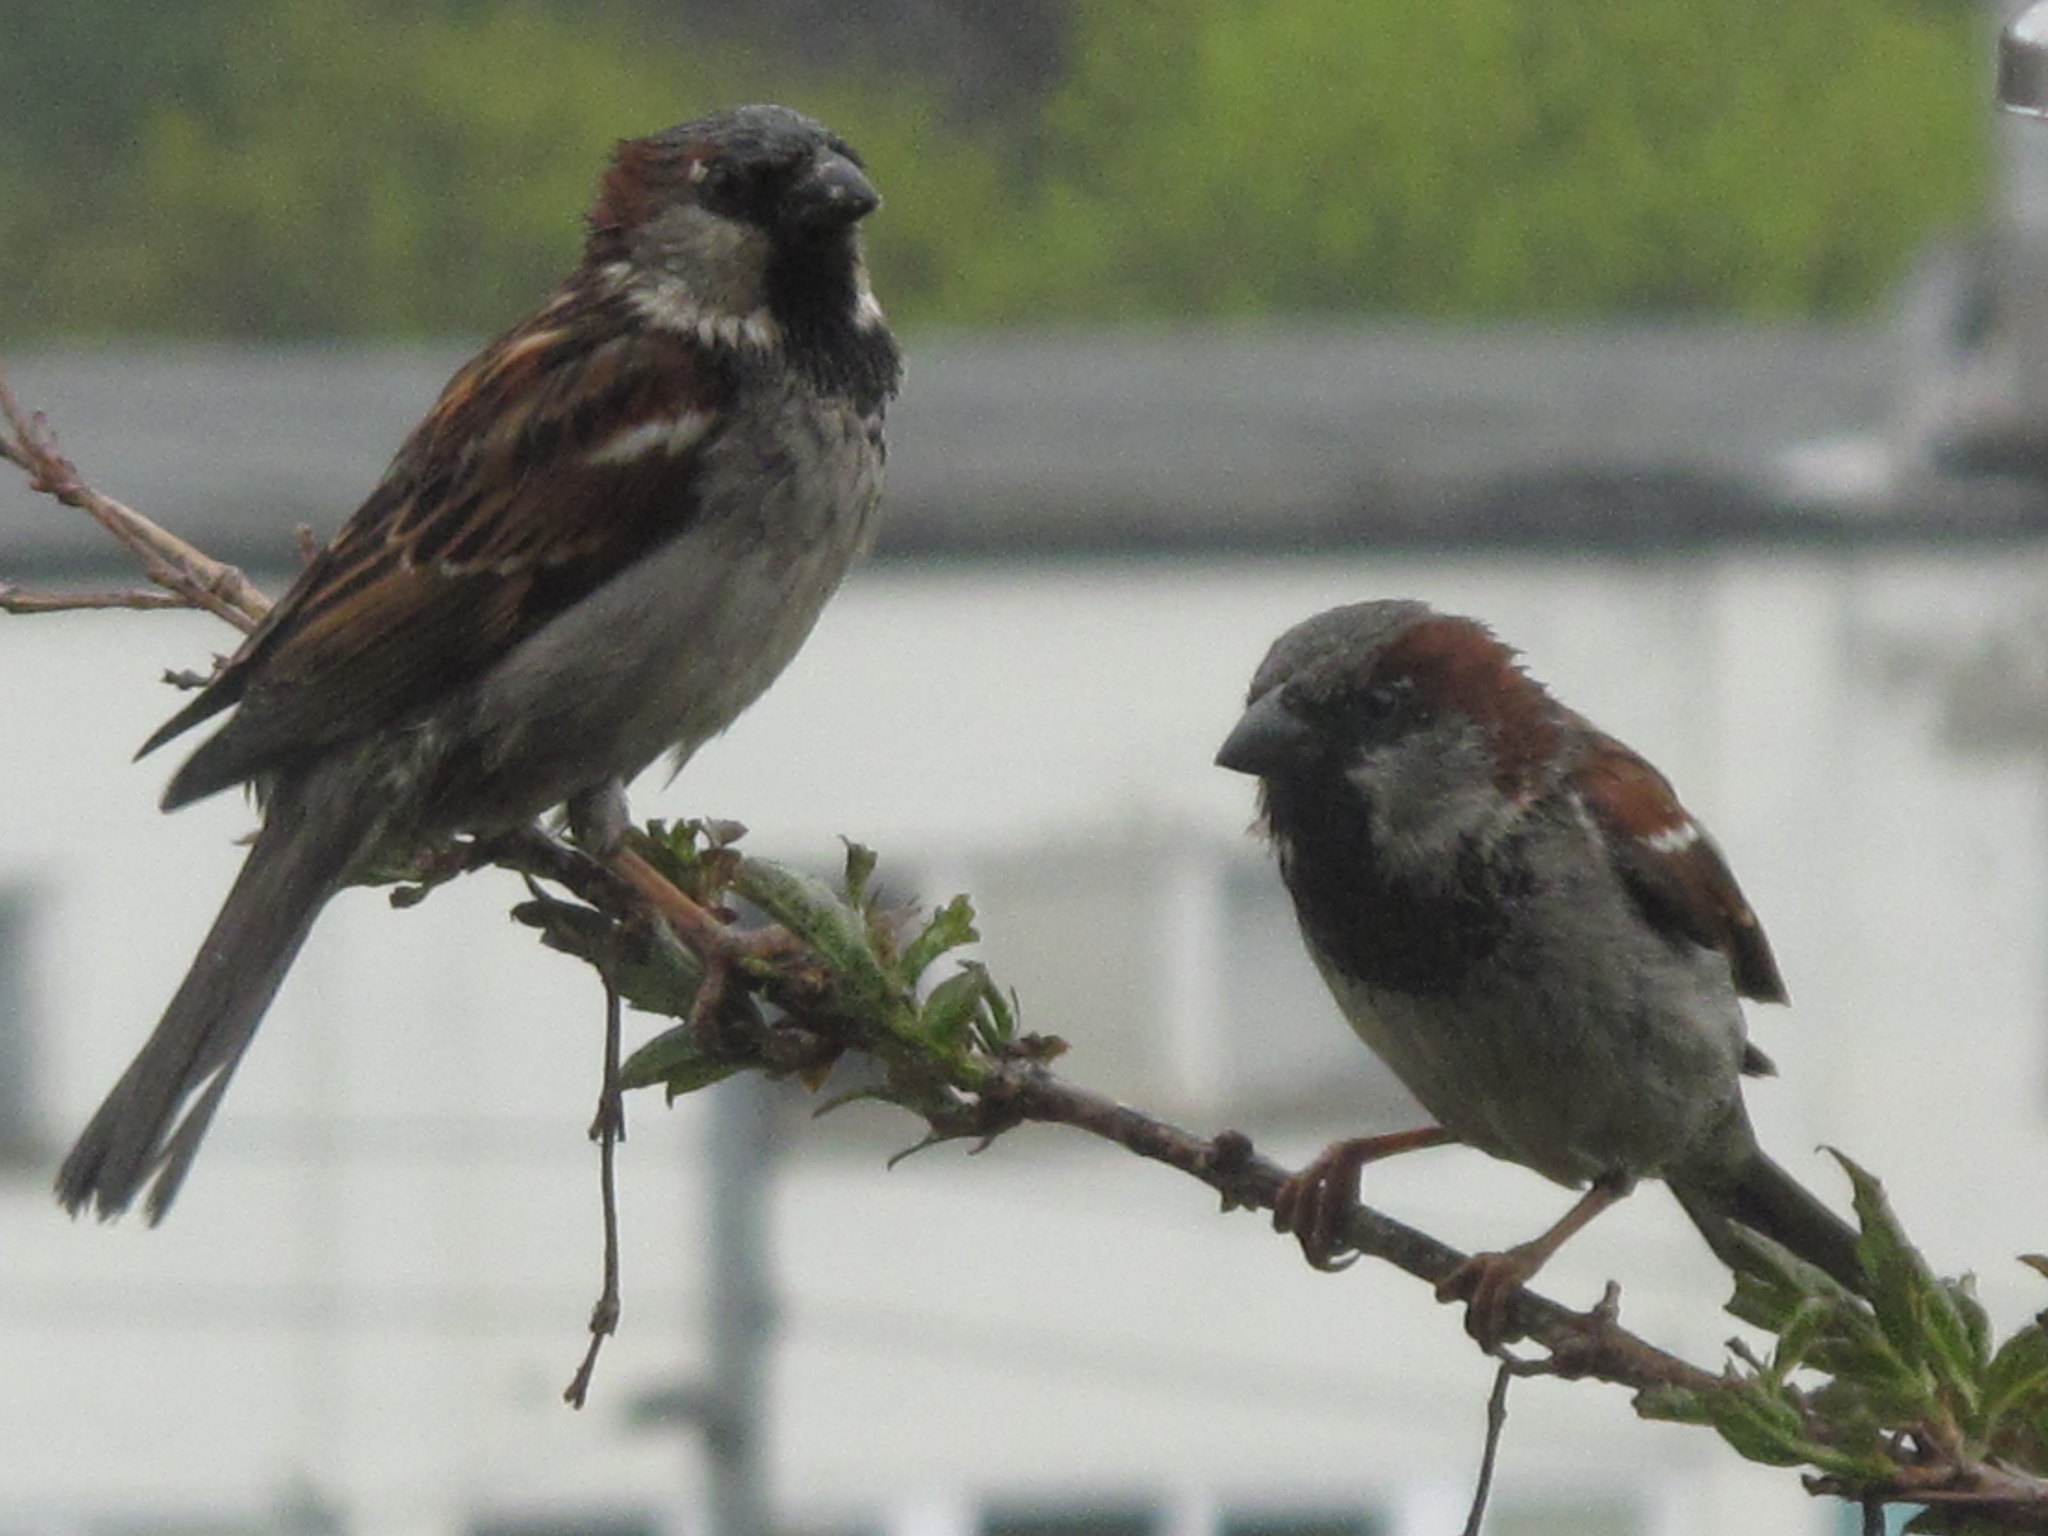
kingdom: Animalia
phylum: Chordata
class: Aves
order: Passeriformes
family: Passeridae
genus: Passer
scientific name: Passer domesticus
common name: House sparrow
